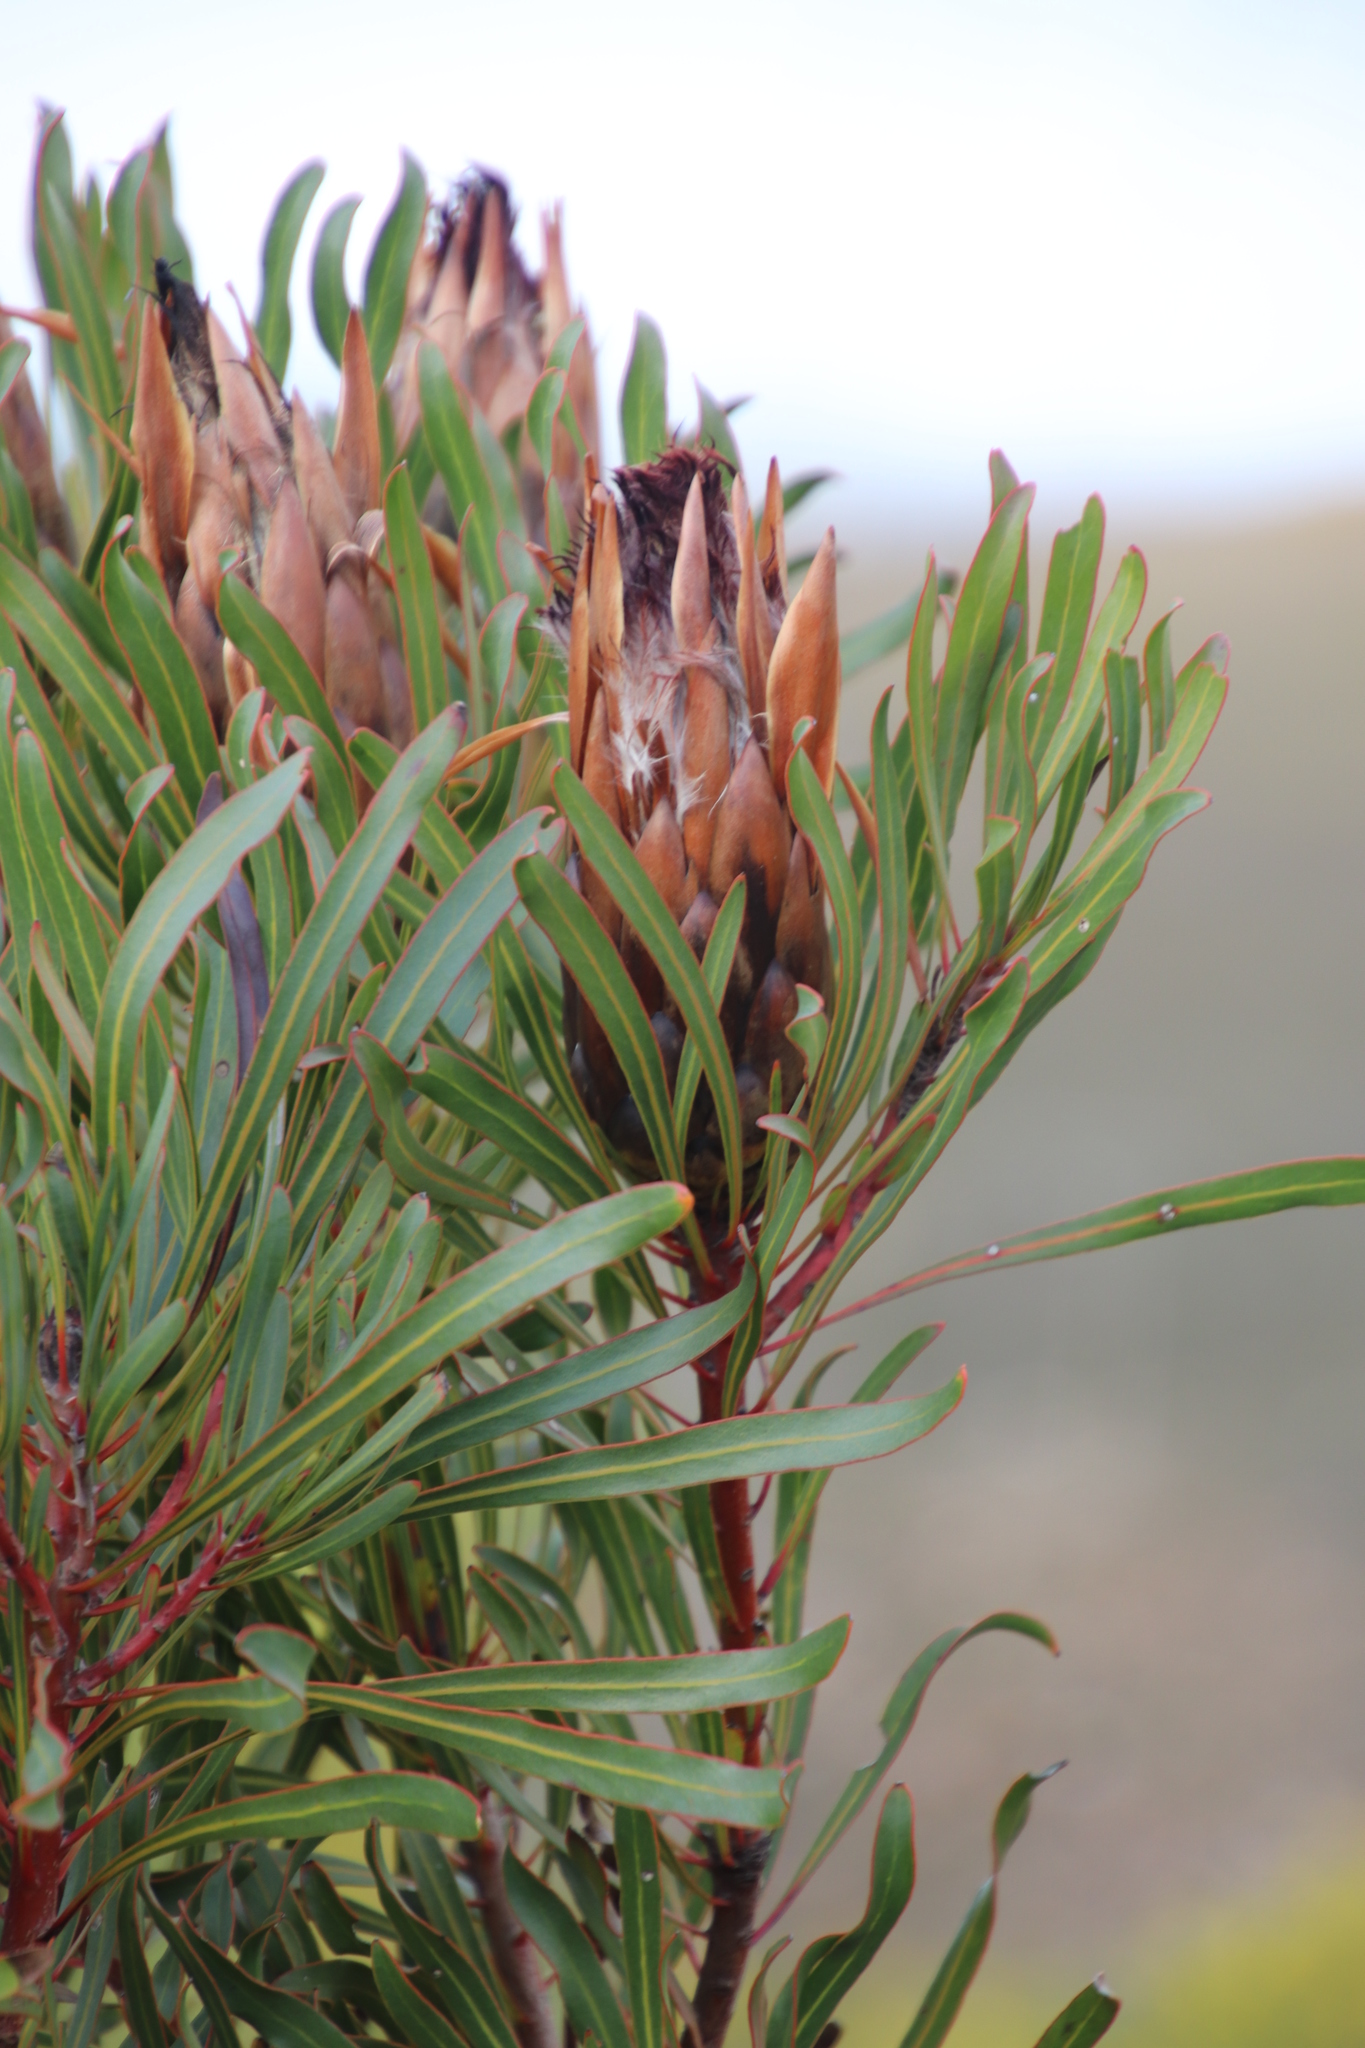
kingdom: Plantae
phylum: Tracheophyta
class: Magnoliopsida
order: Proteales
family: Proteaceae
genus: Protea
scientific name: Protea longifolia
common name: Long-leaf sugarbush
